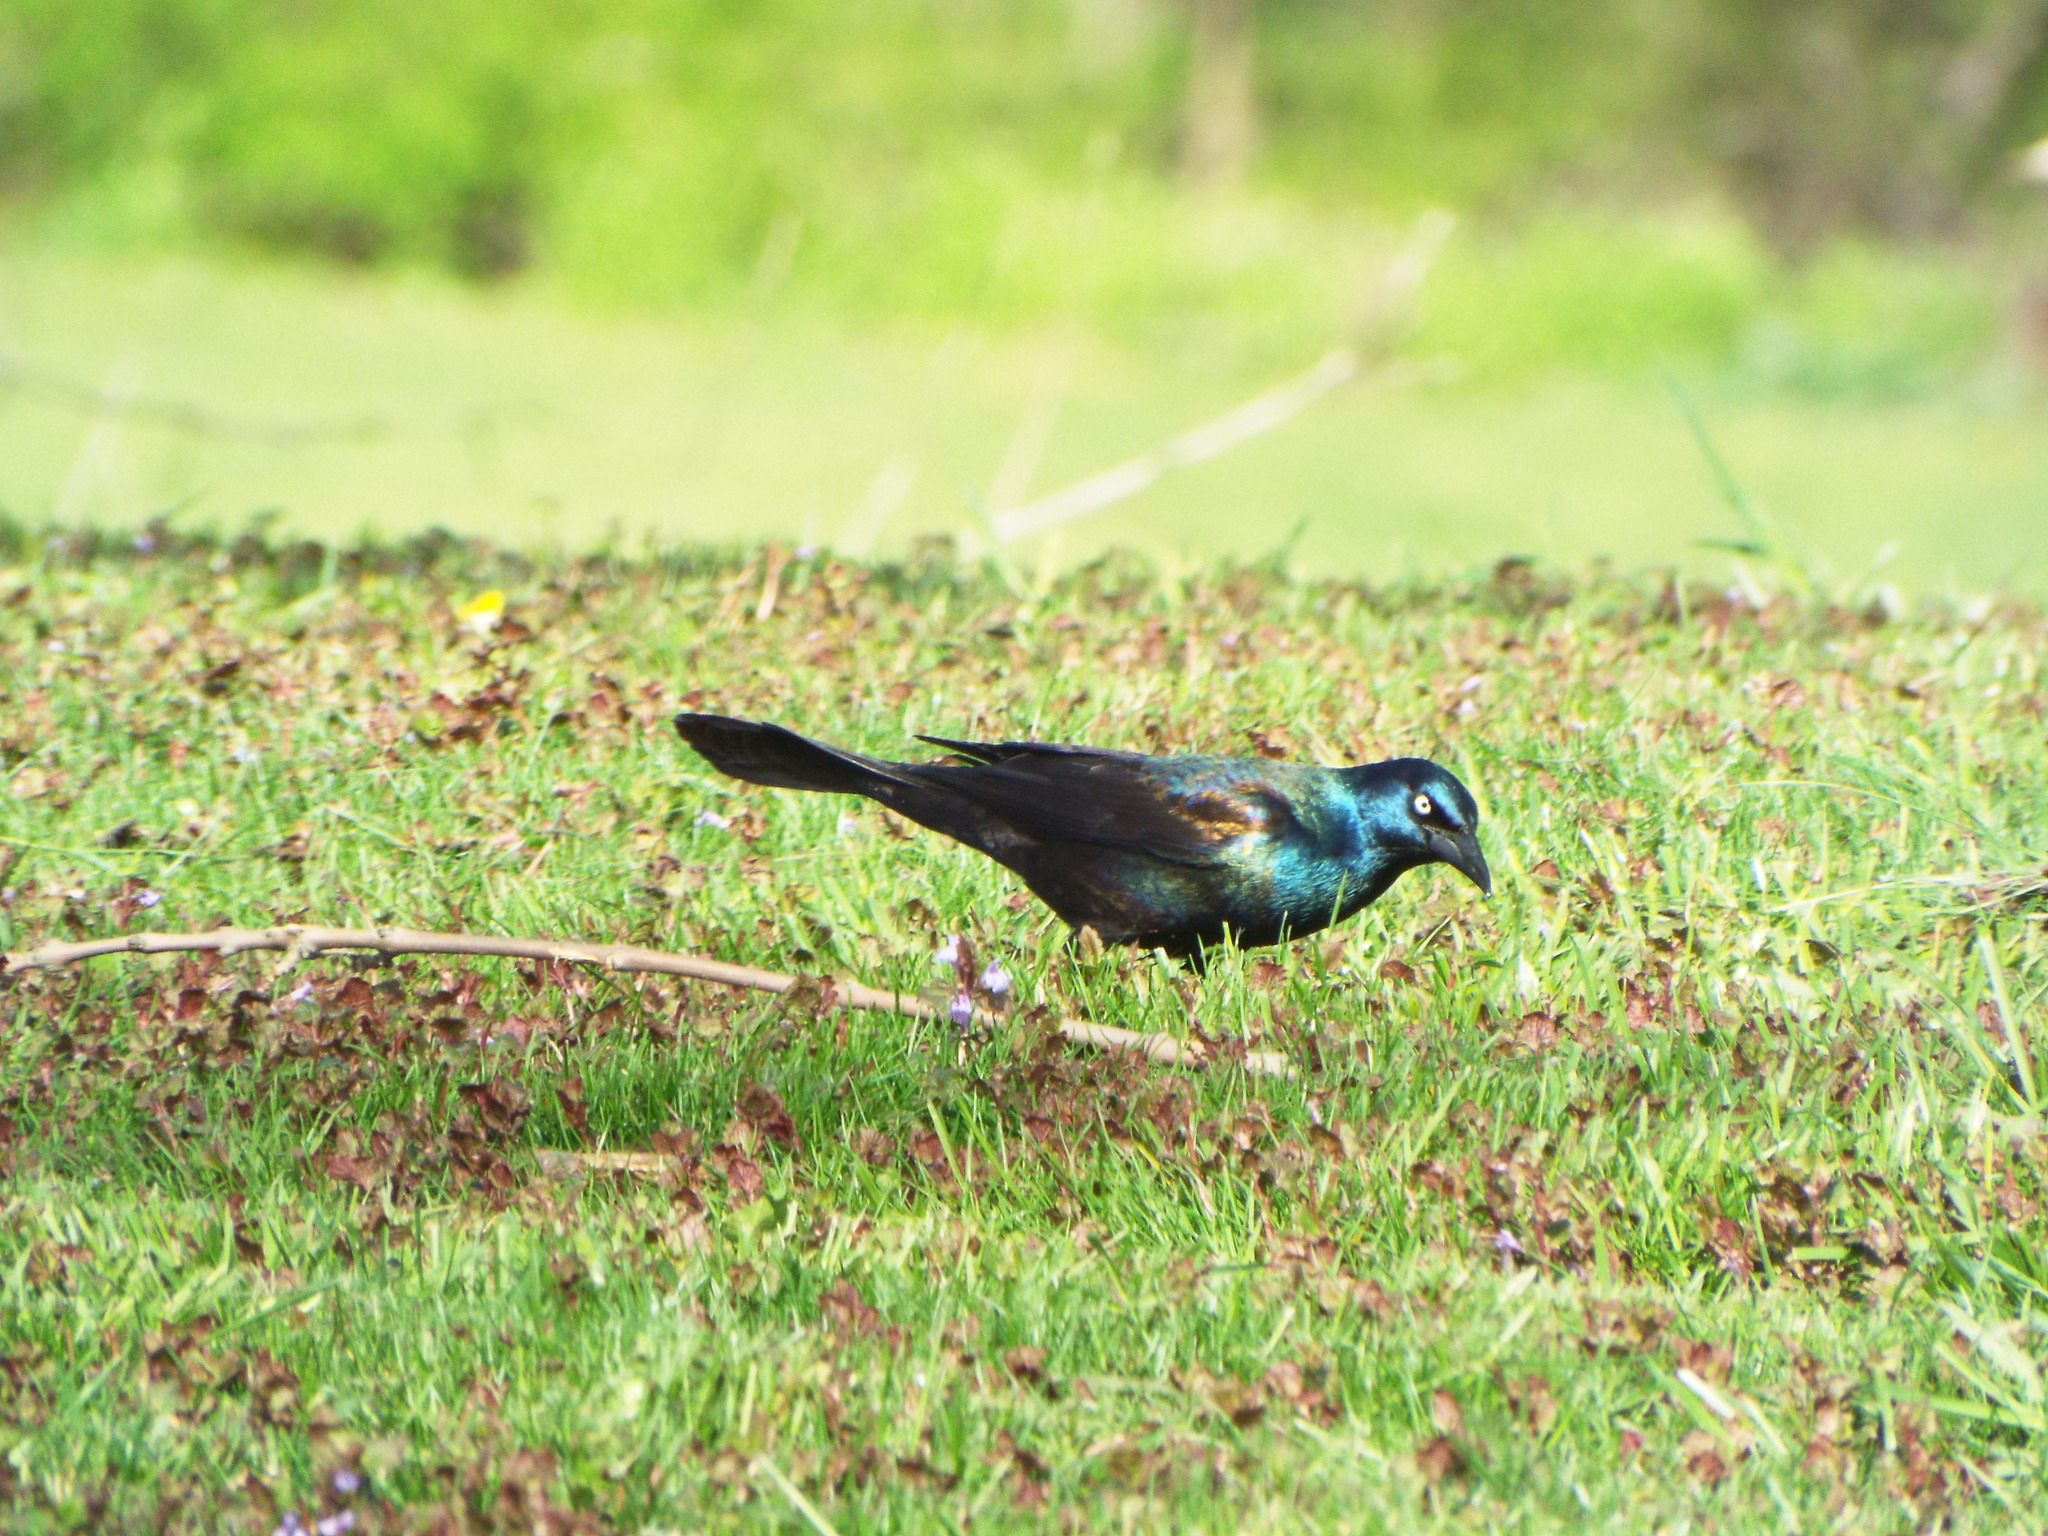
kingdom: Animalia
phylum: Chordata
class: Aves
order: Passeriformes
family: Icteridae
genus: Quiscalus
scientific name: Quiscalus quiscula
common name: Common grackle
